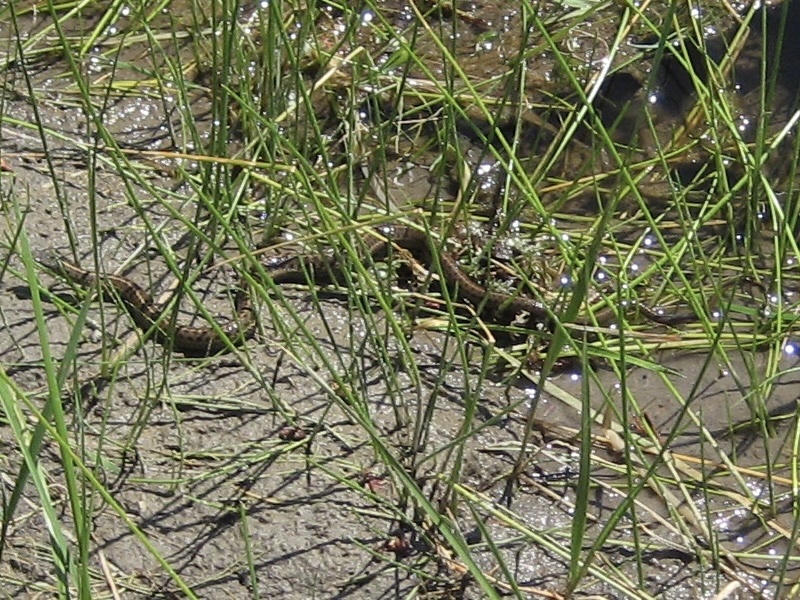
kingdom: Animalia
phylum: Chordata
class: Squamata
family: Colubridae
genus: Thamnophis
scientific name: Thamnophis elegans
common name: Western terrestrial garter snake
